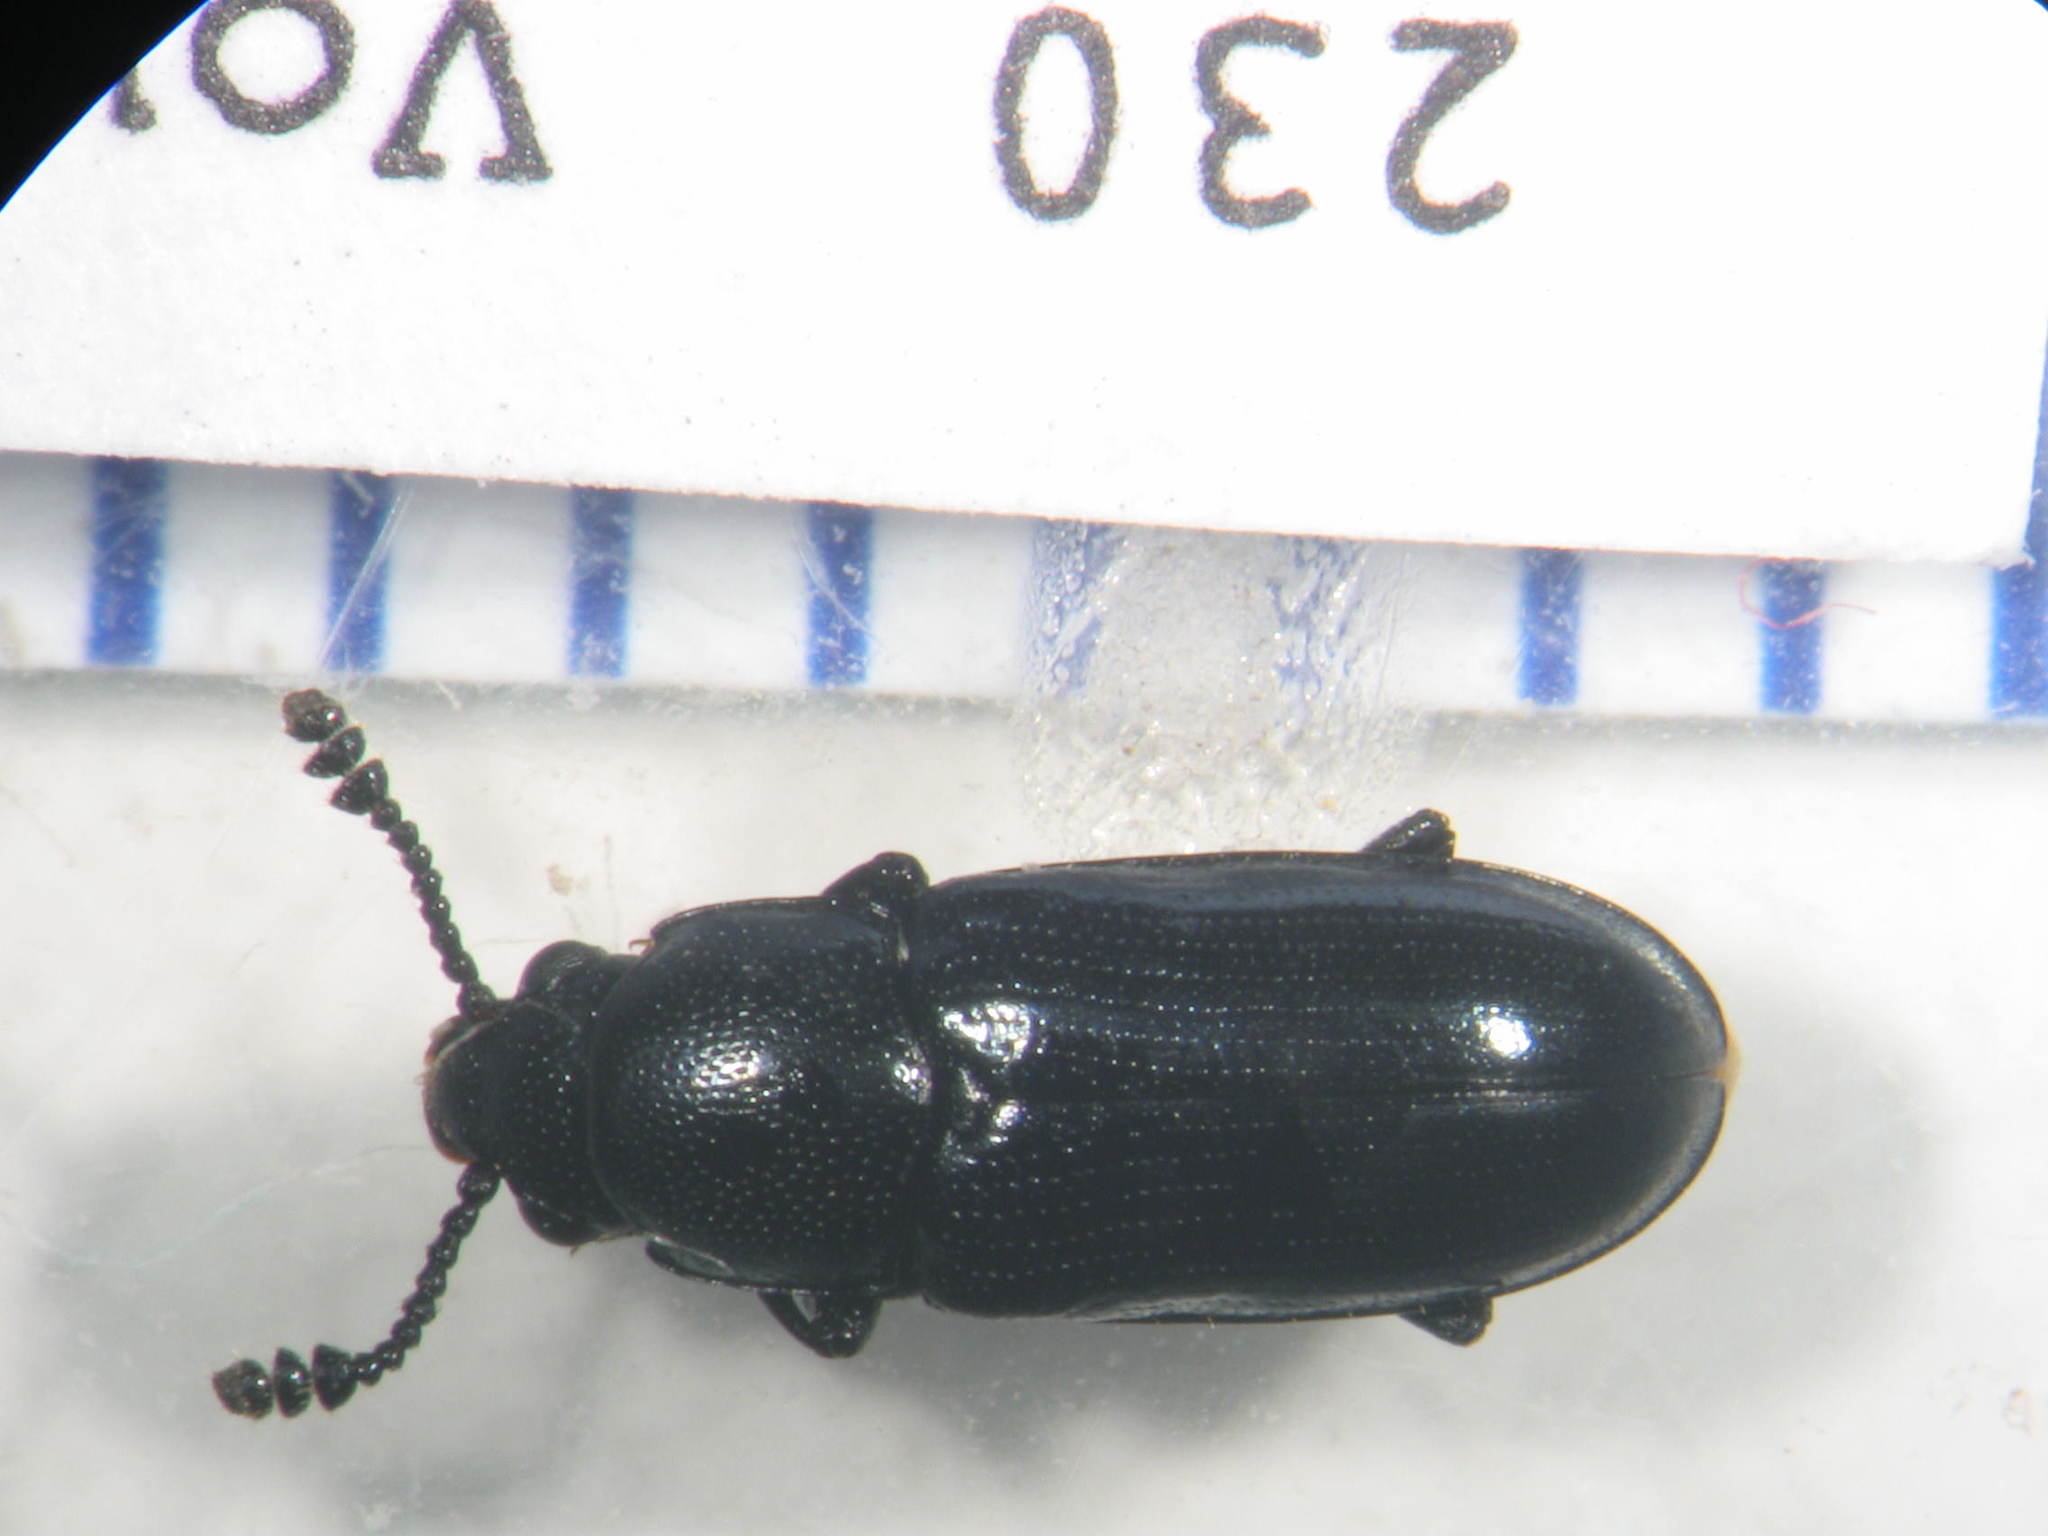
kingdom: Animalia
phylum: Arthropoda
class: Insecta
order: Coleoptera
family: Erotylidae
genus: Thallis
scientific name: Thallis
